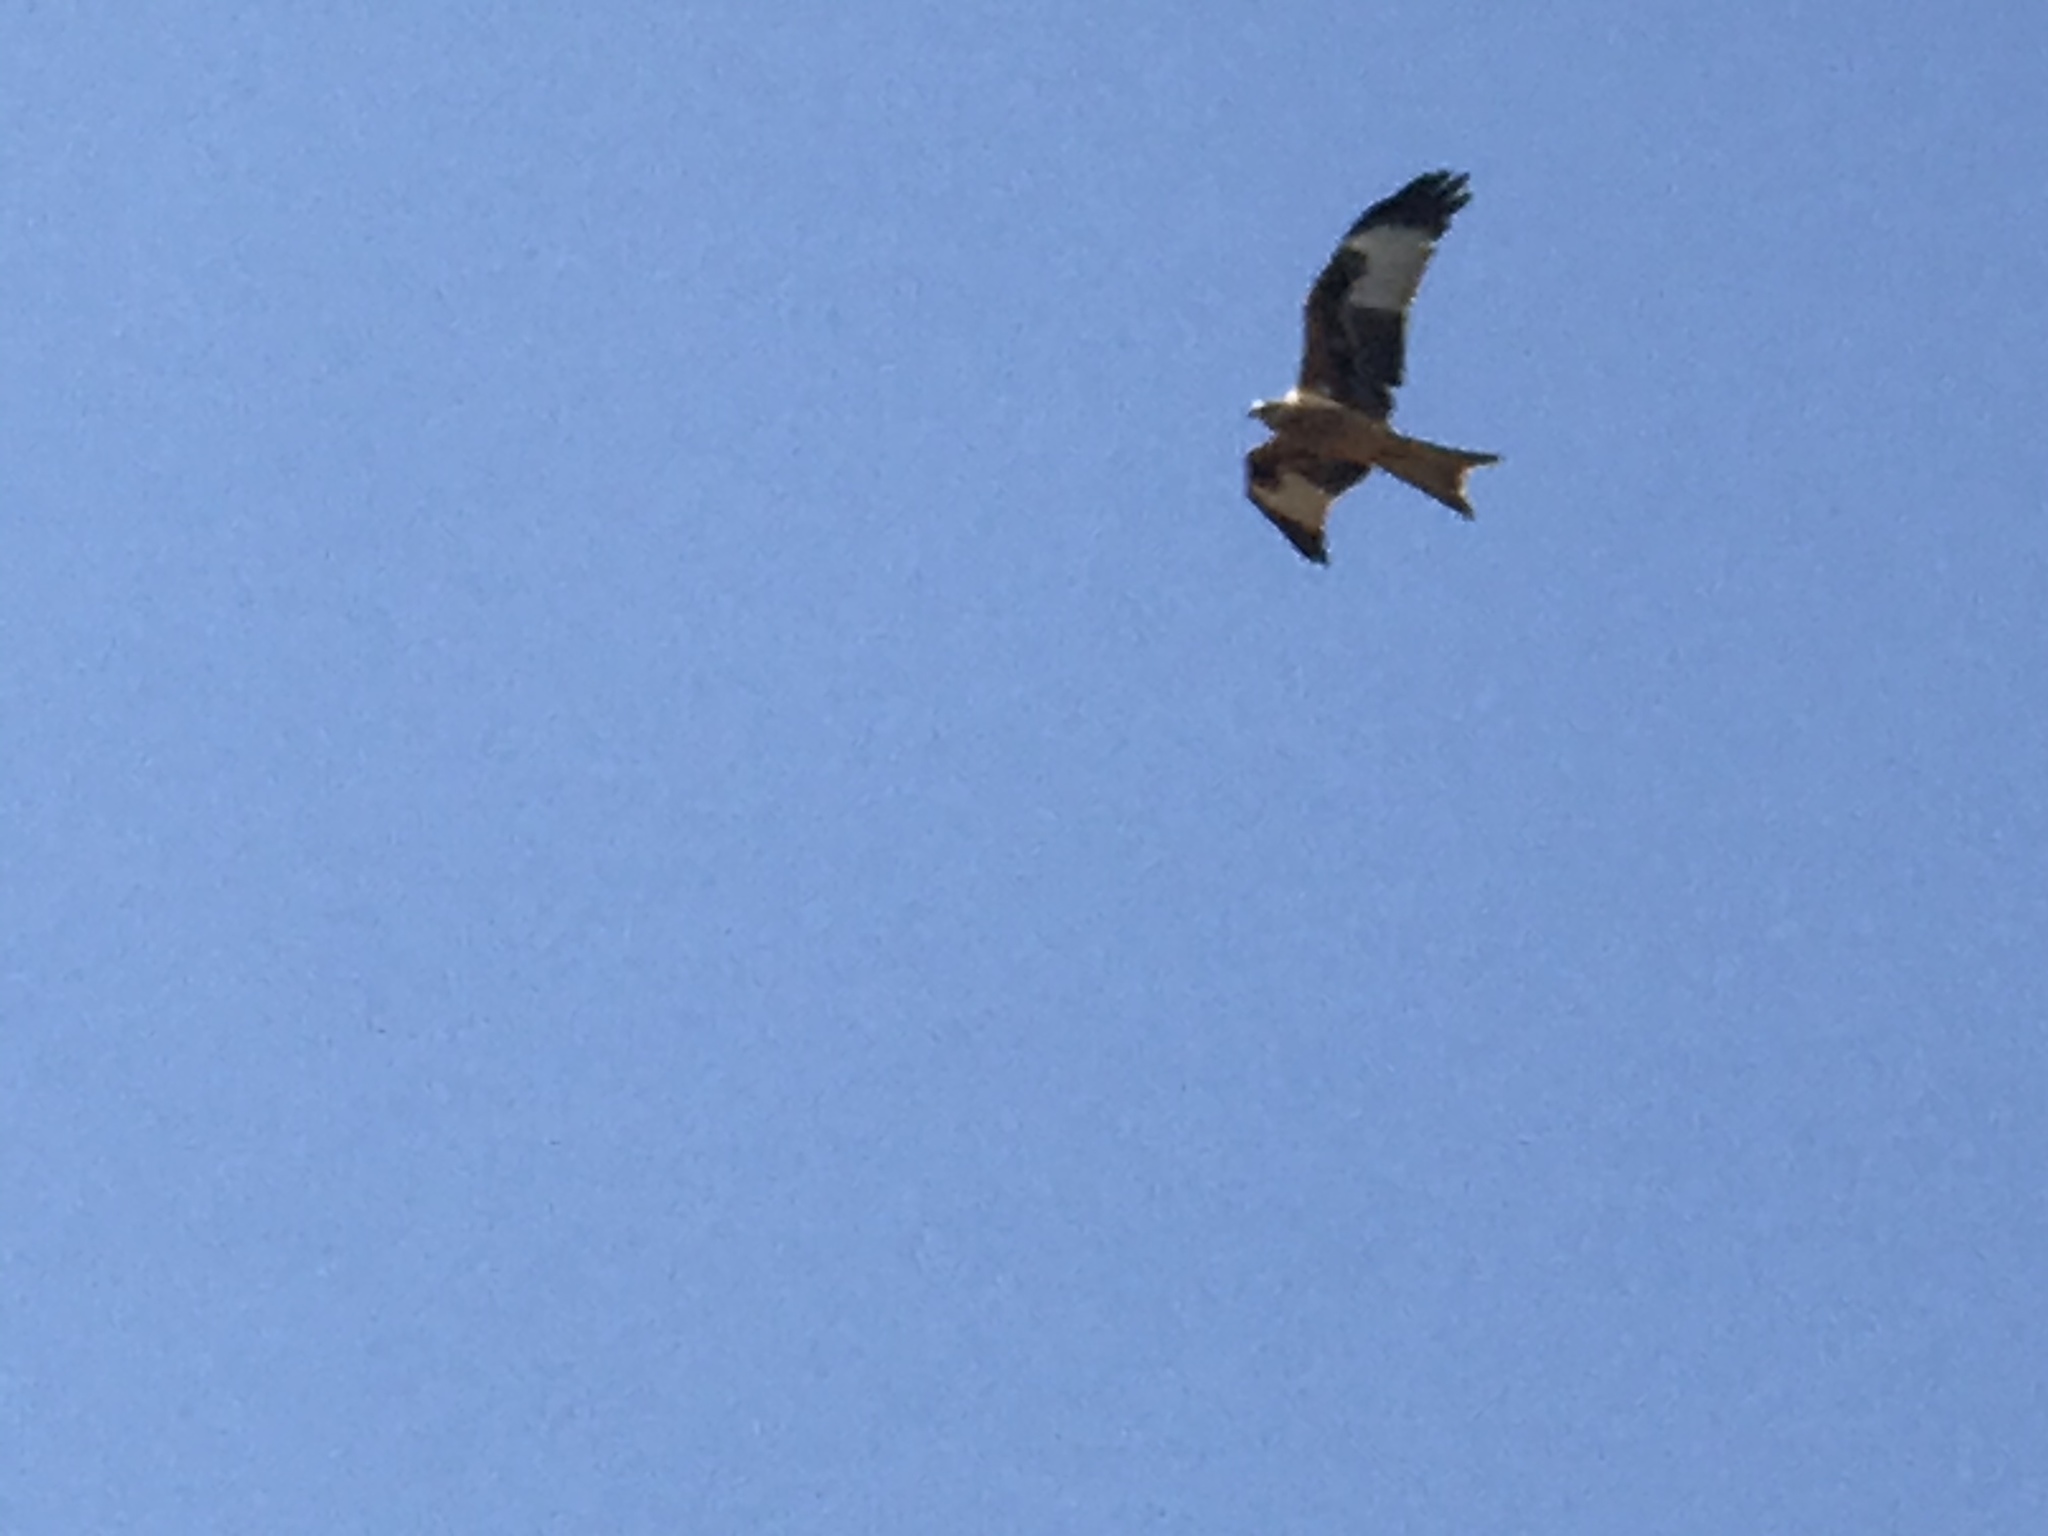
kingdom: Animalia
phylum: Chordata
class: Aves
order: Accipitriformes
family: Accipitridae
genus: Milvus
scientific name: Milvus milvus
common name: Red kite
